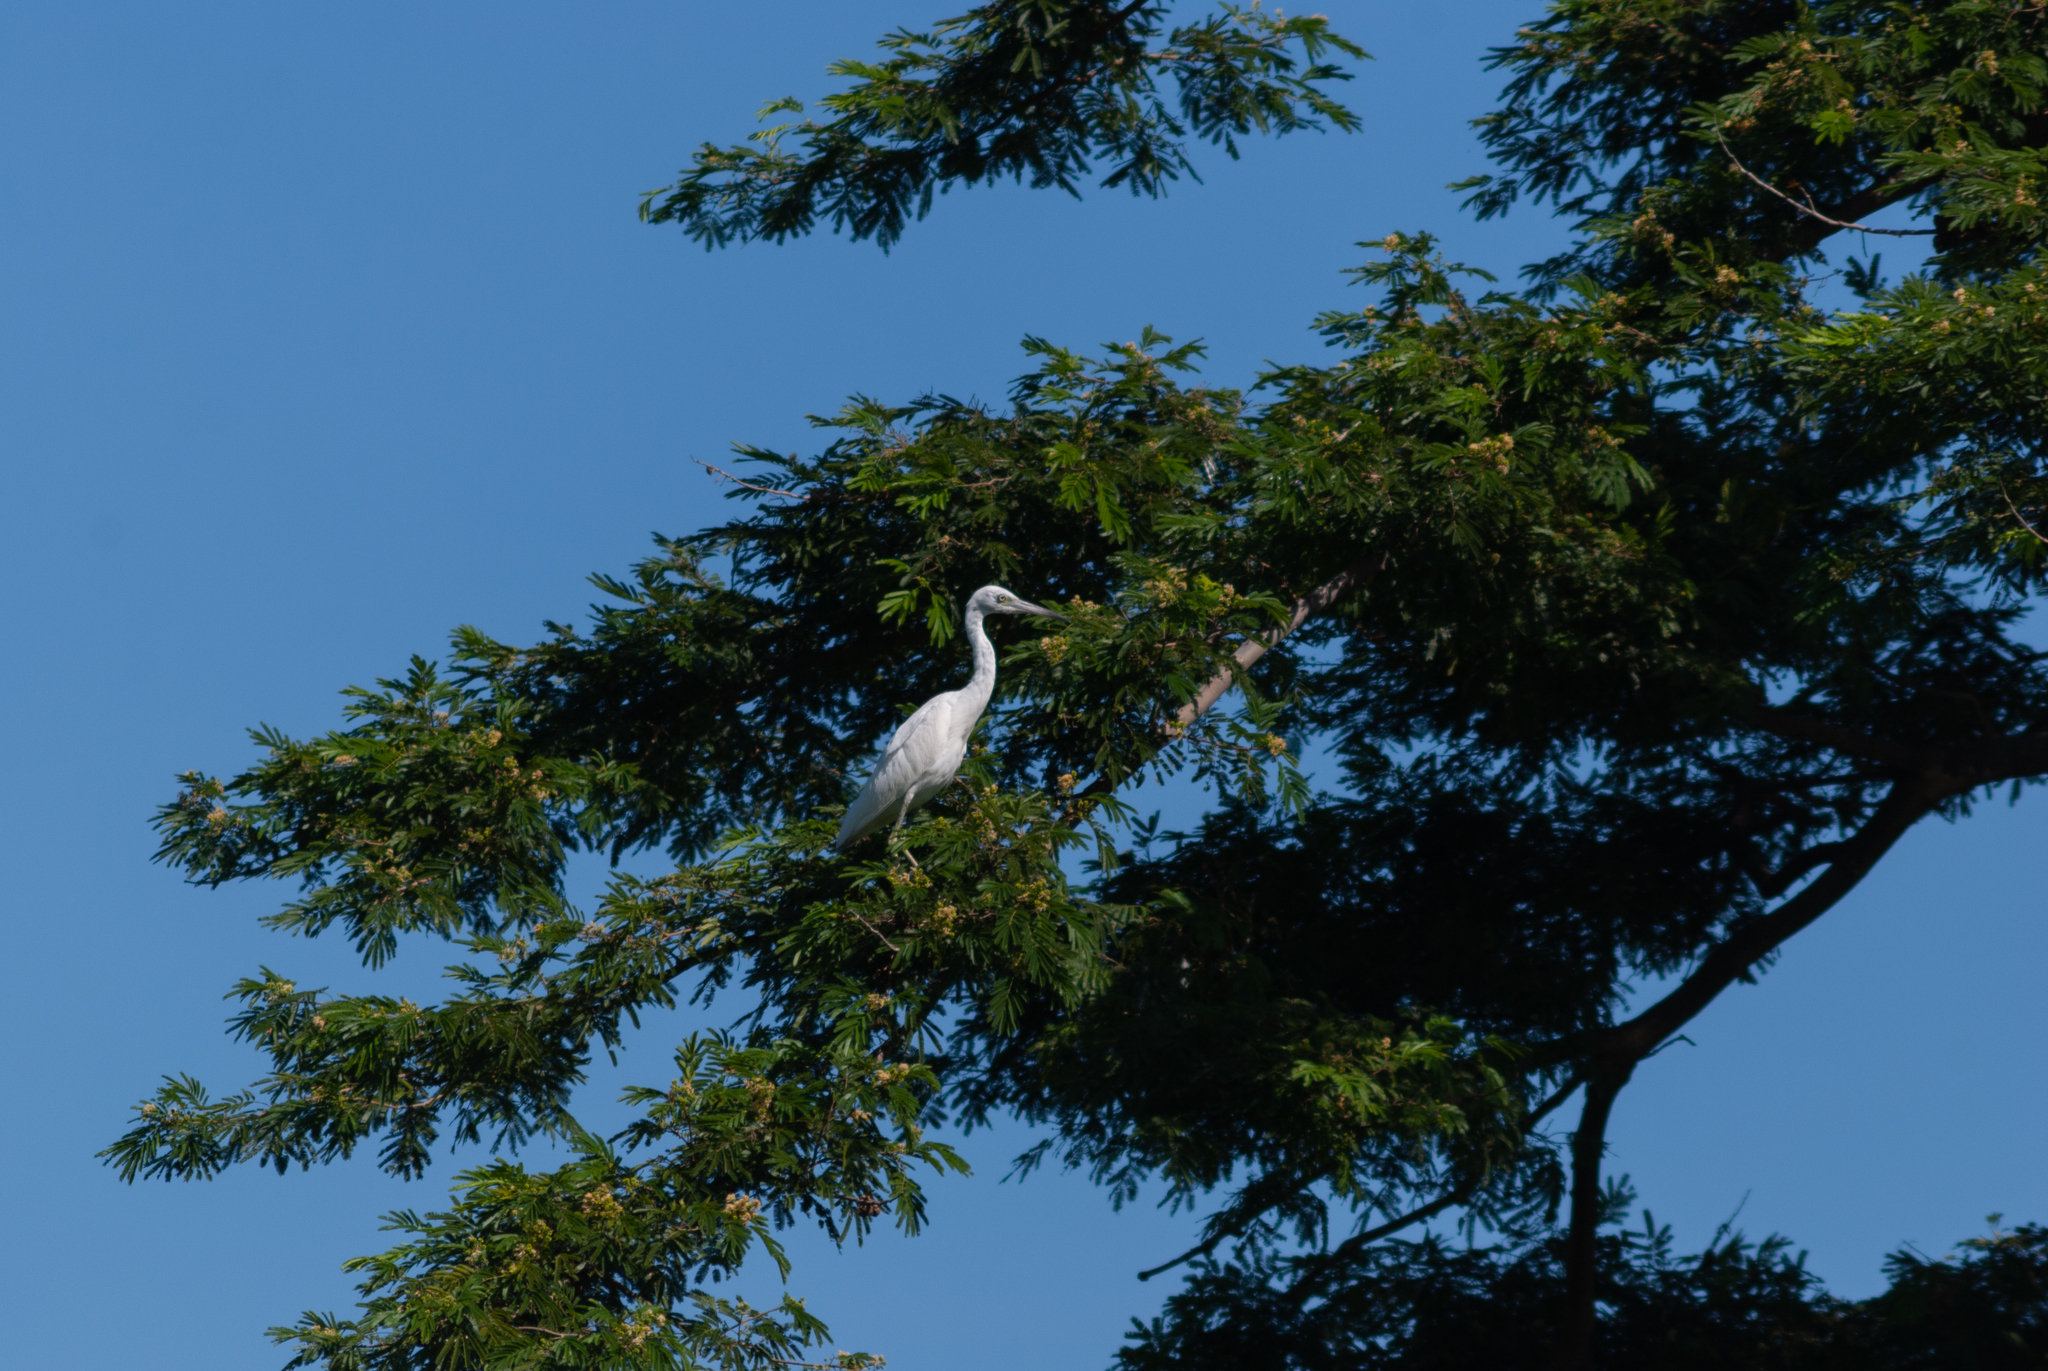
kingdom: Animalia
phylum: Chordata
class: Aves
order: Pelecaniformes
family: Ardeidae
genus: Egretta
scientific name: Egretta caerulea
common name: Little blue heron
